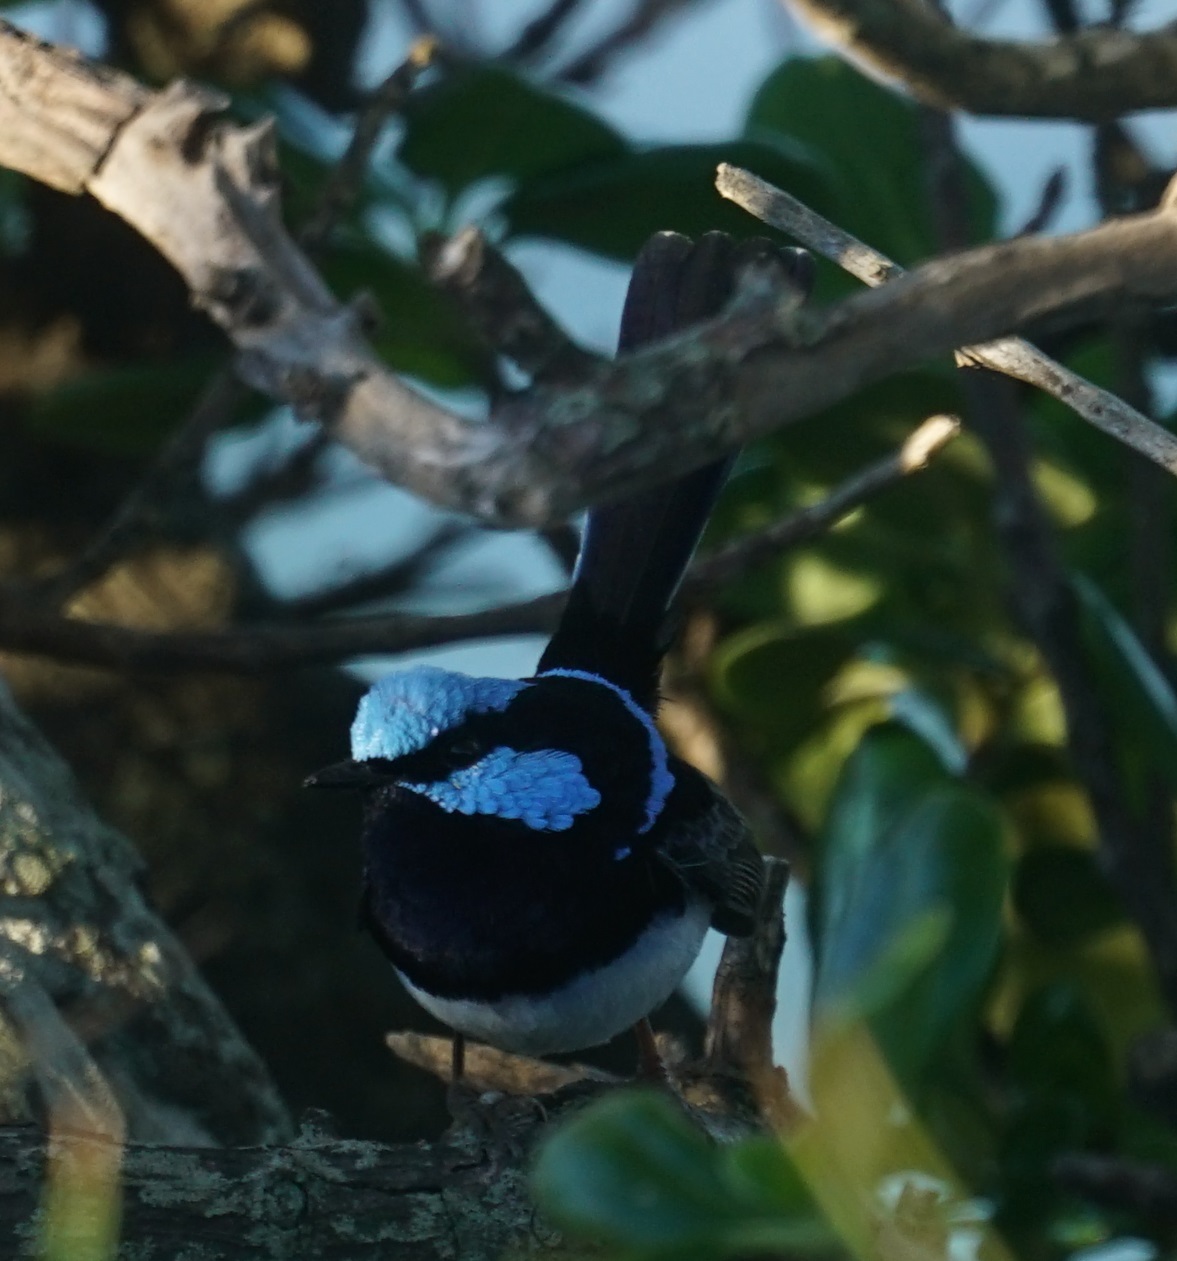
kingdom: Animalia
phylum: Chordata
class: Aves
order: Passeriformes
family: Maluridae
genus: Malurus
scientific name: Malurus cyaneus
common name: Superb fairywren
